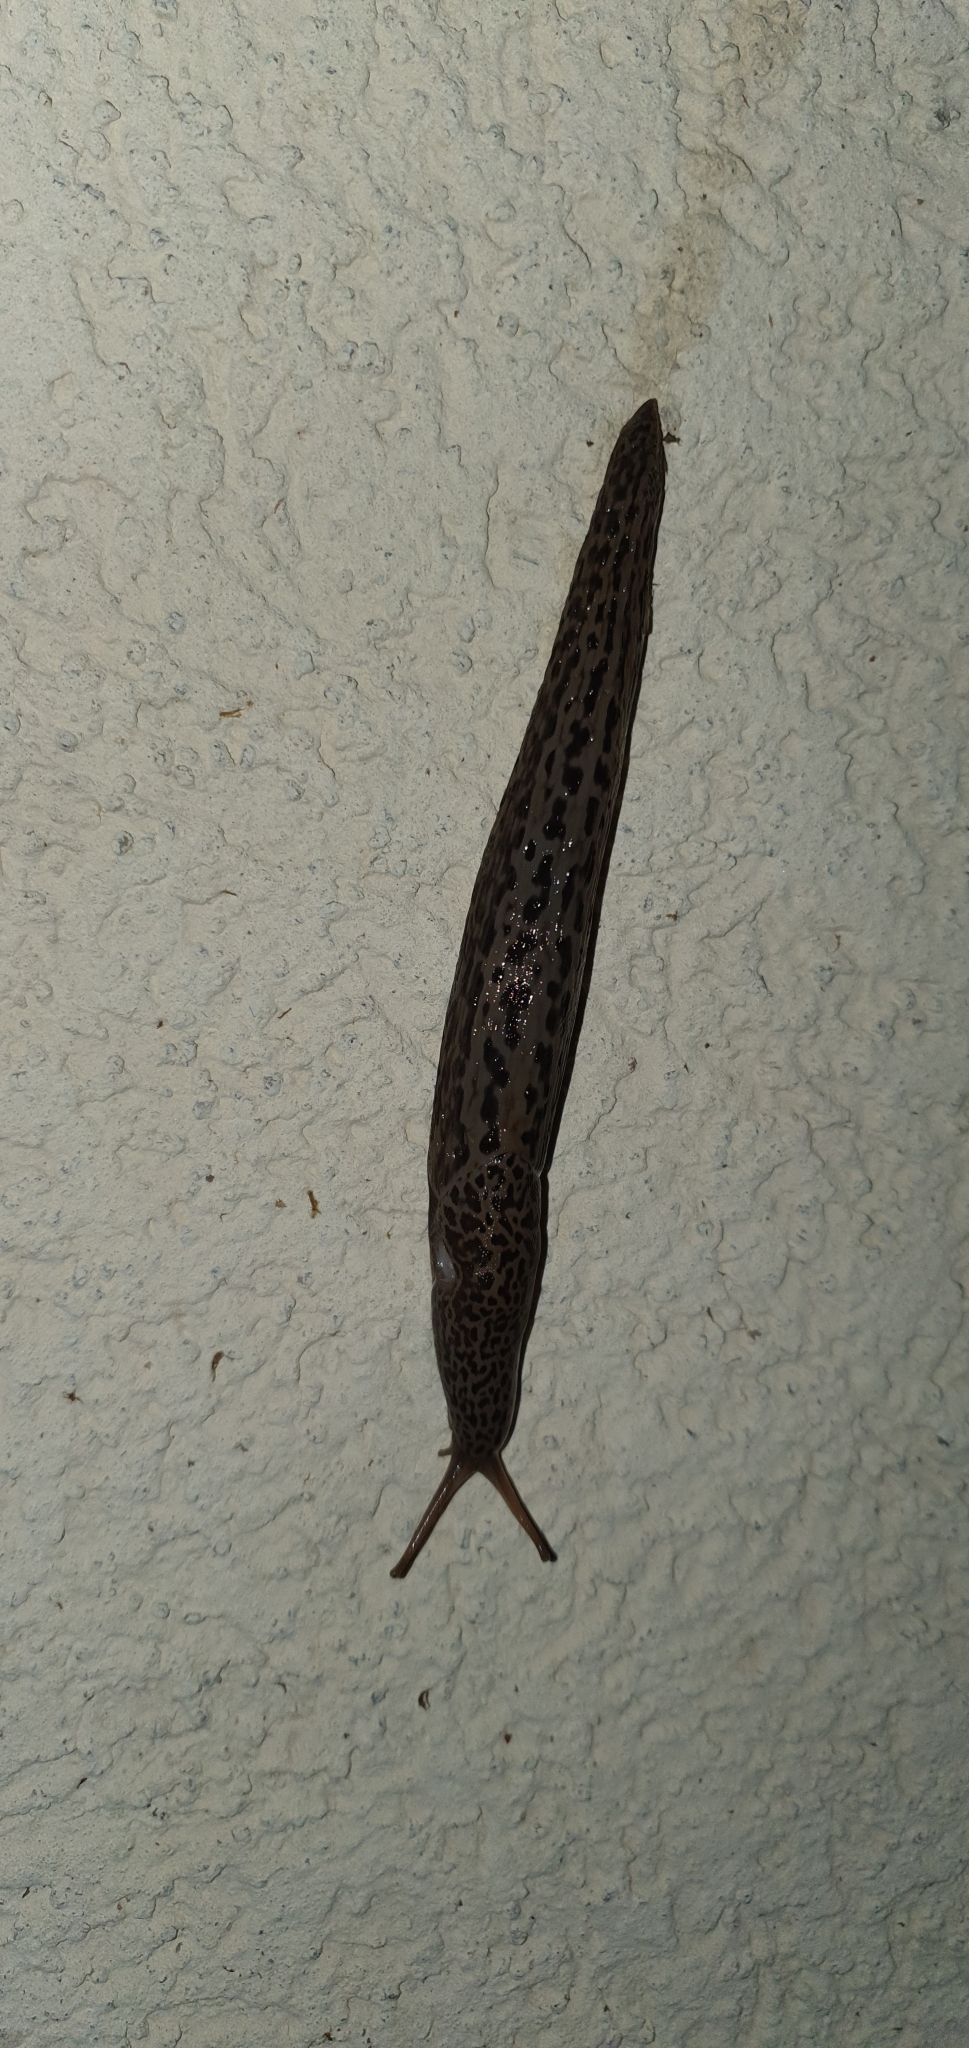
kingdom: Animalia
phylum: Mollusca
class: Gastropoda
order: Stylommatophora
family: Limacidae
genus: Limax
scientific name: Limax maximus
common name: Great grey slug
